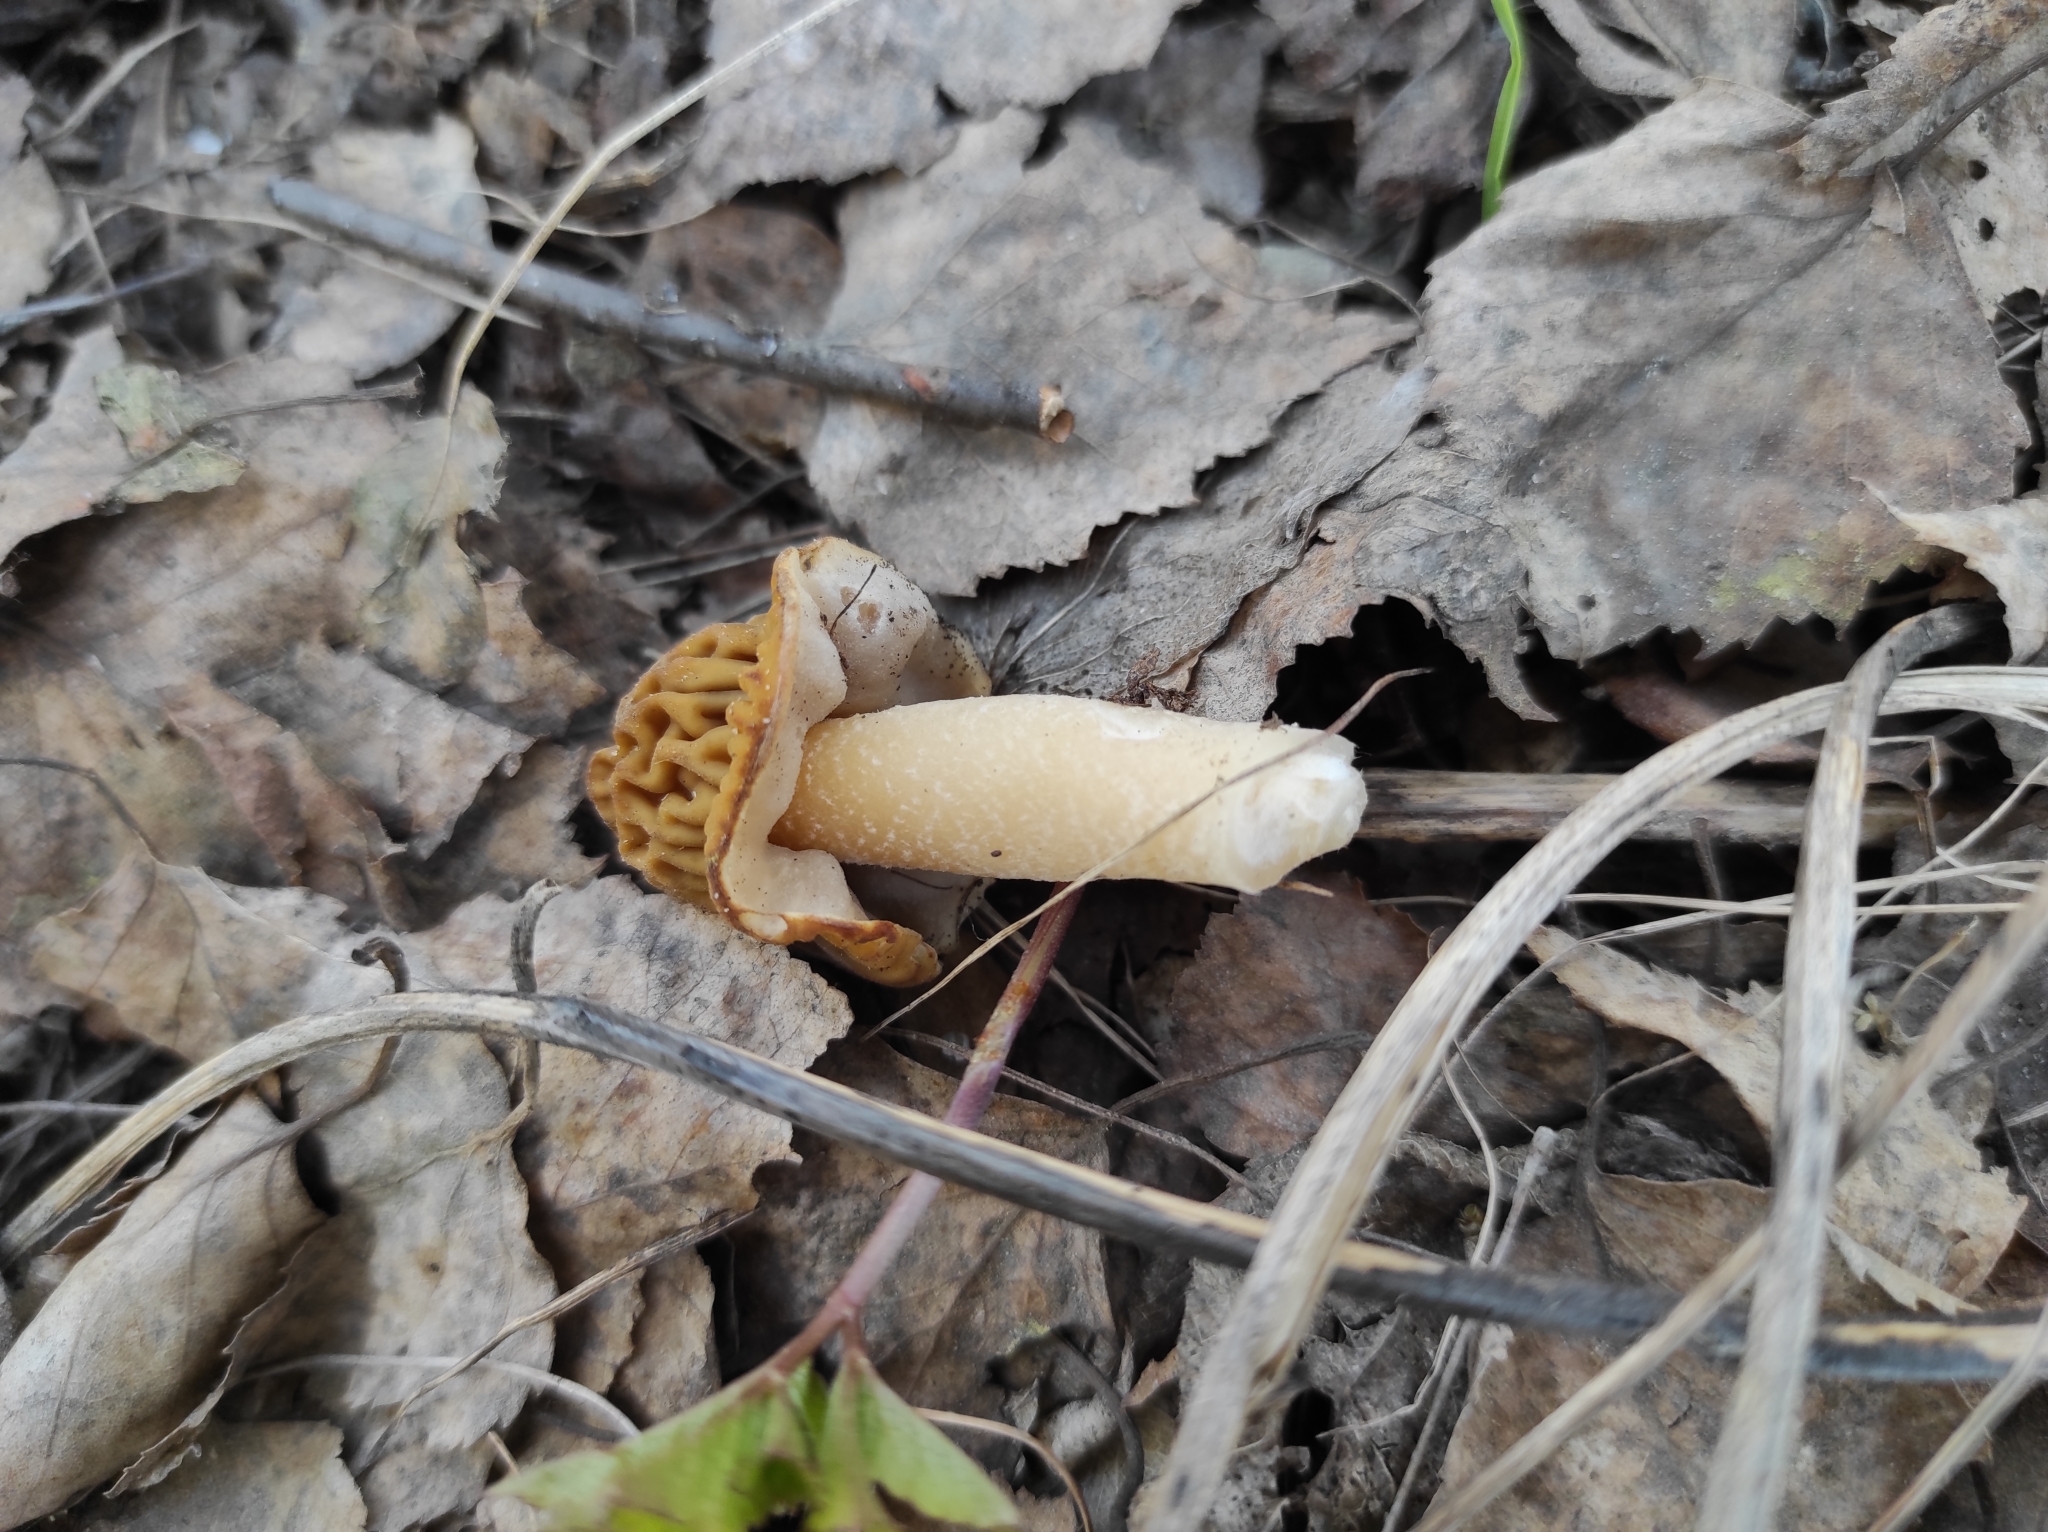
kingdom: Fungi
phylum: Ascomycota
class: Pezizomycetes
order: Pezizales
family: Morchellaceae
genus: Verpa
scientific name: Verpa bohemica
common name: Wrinkled thimble morel
